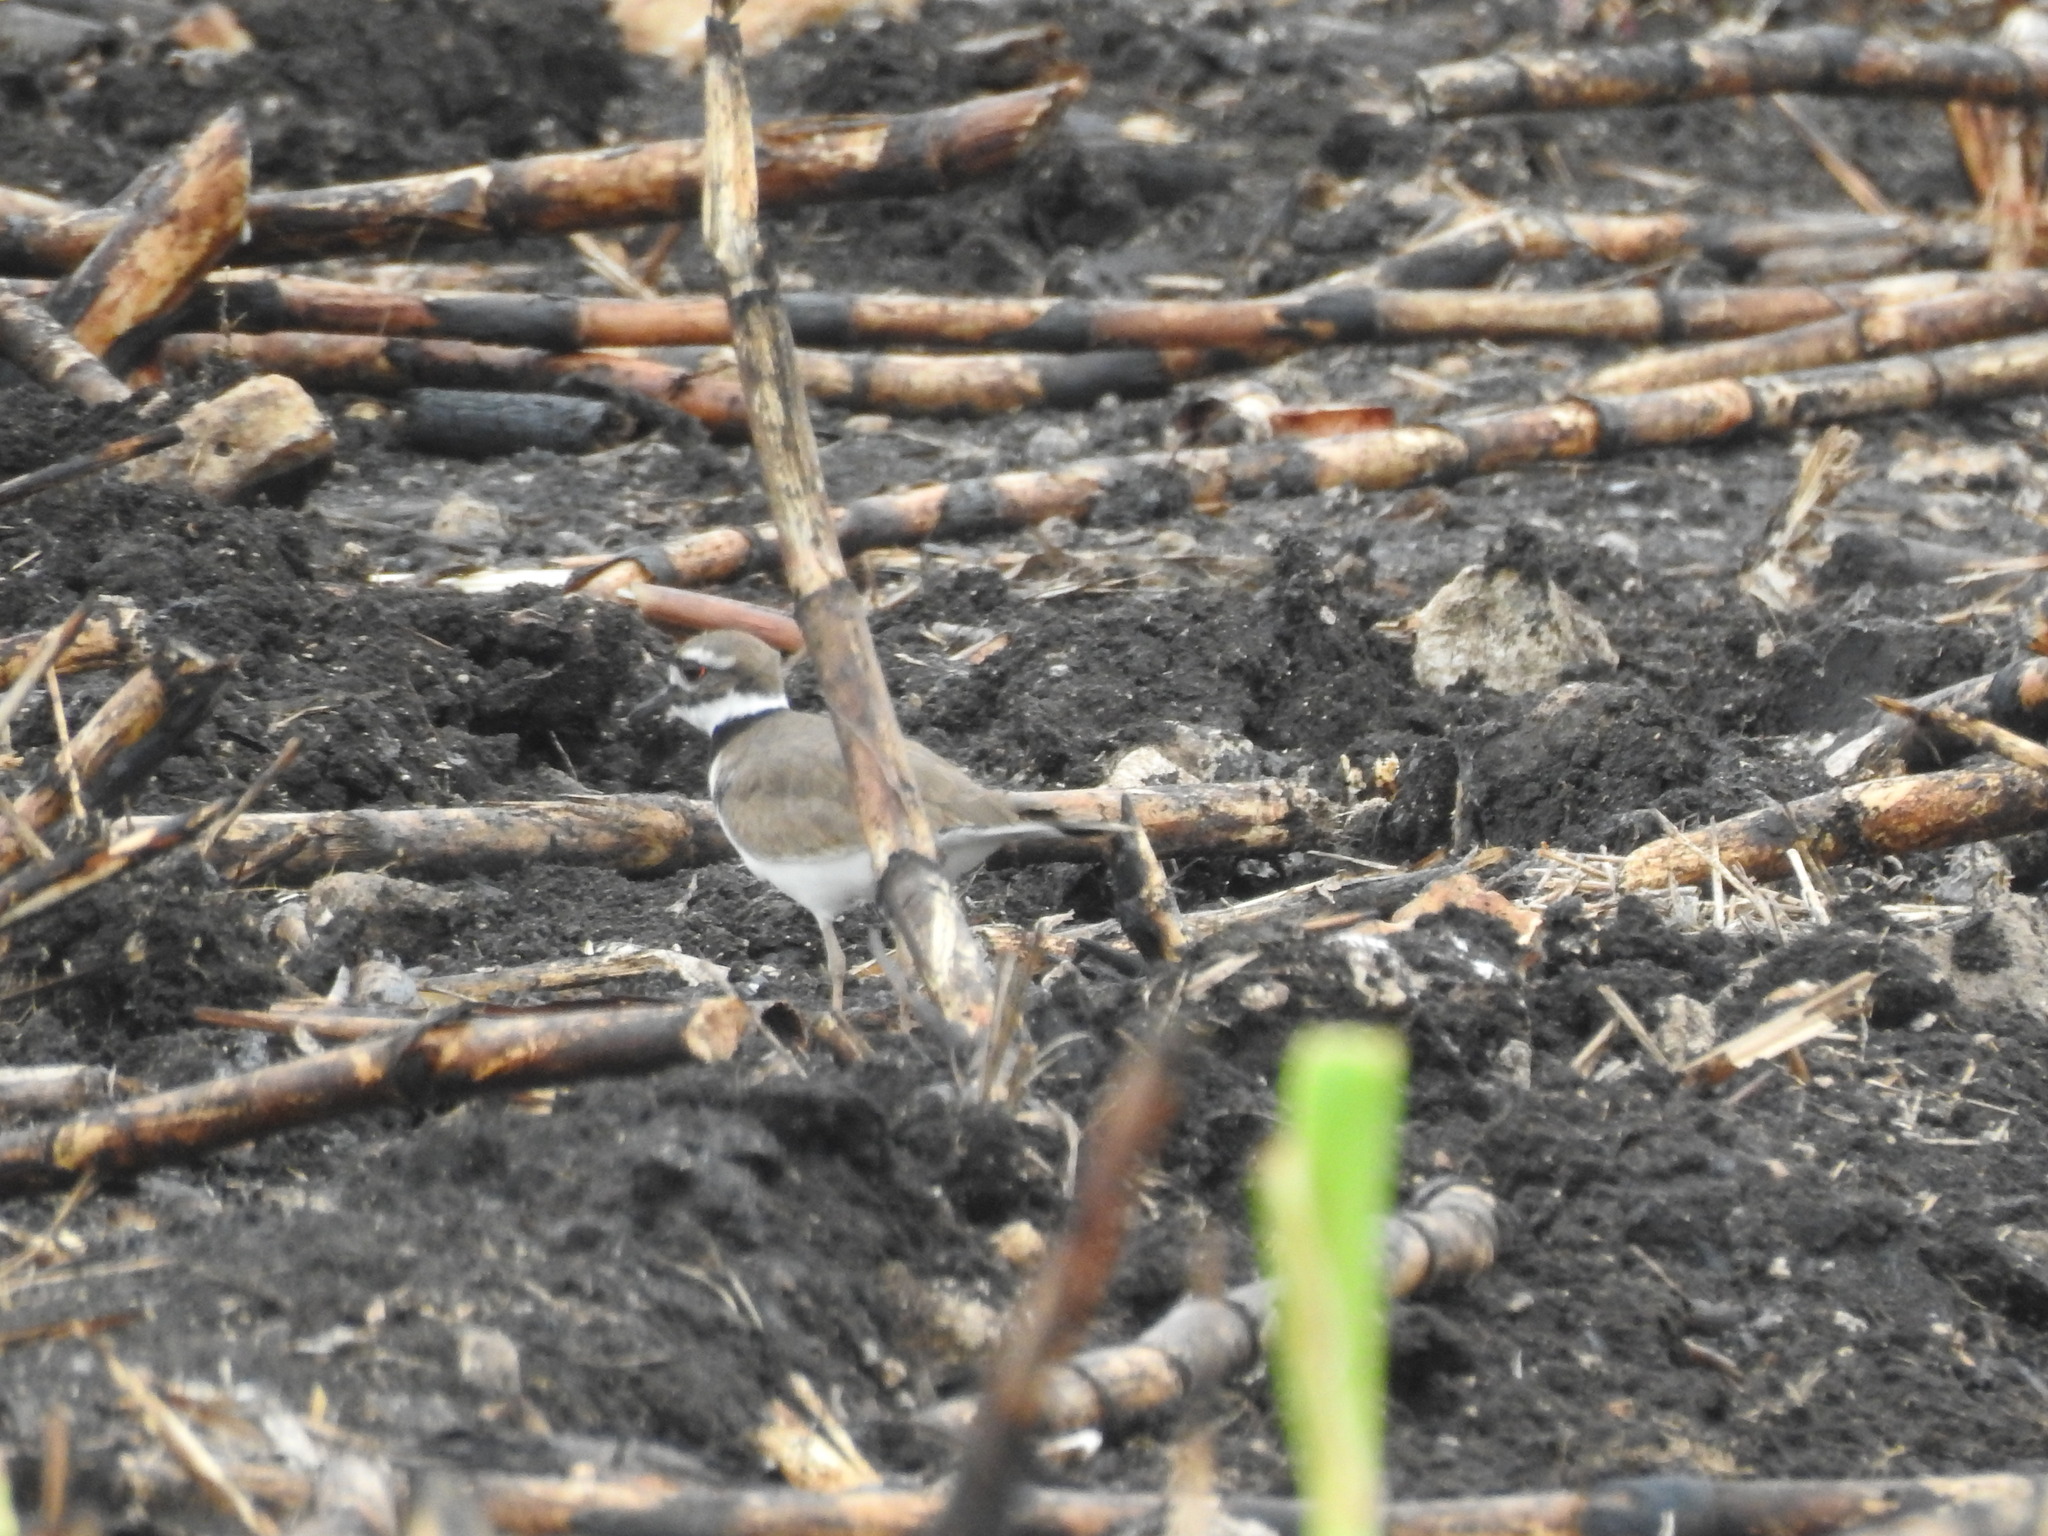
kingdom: Animalia
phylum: Chordata
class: Aves
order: Charadriiformes
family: Charadriidae
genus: Charadrius
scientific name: Charadrius vociferus
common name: Killdeer
